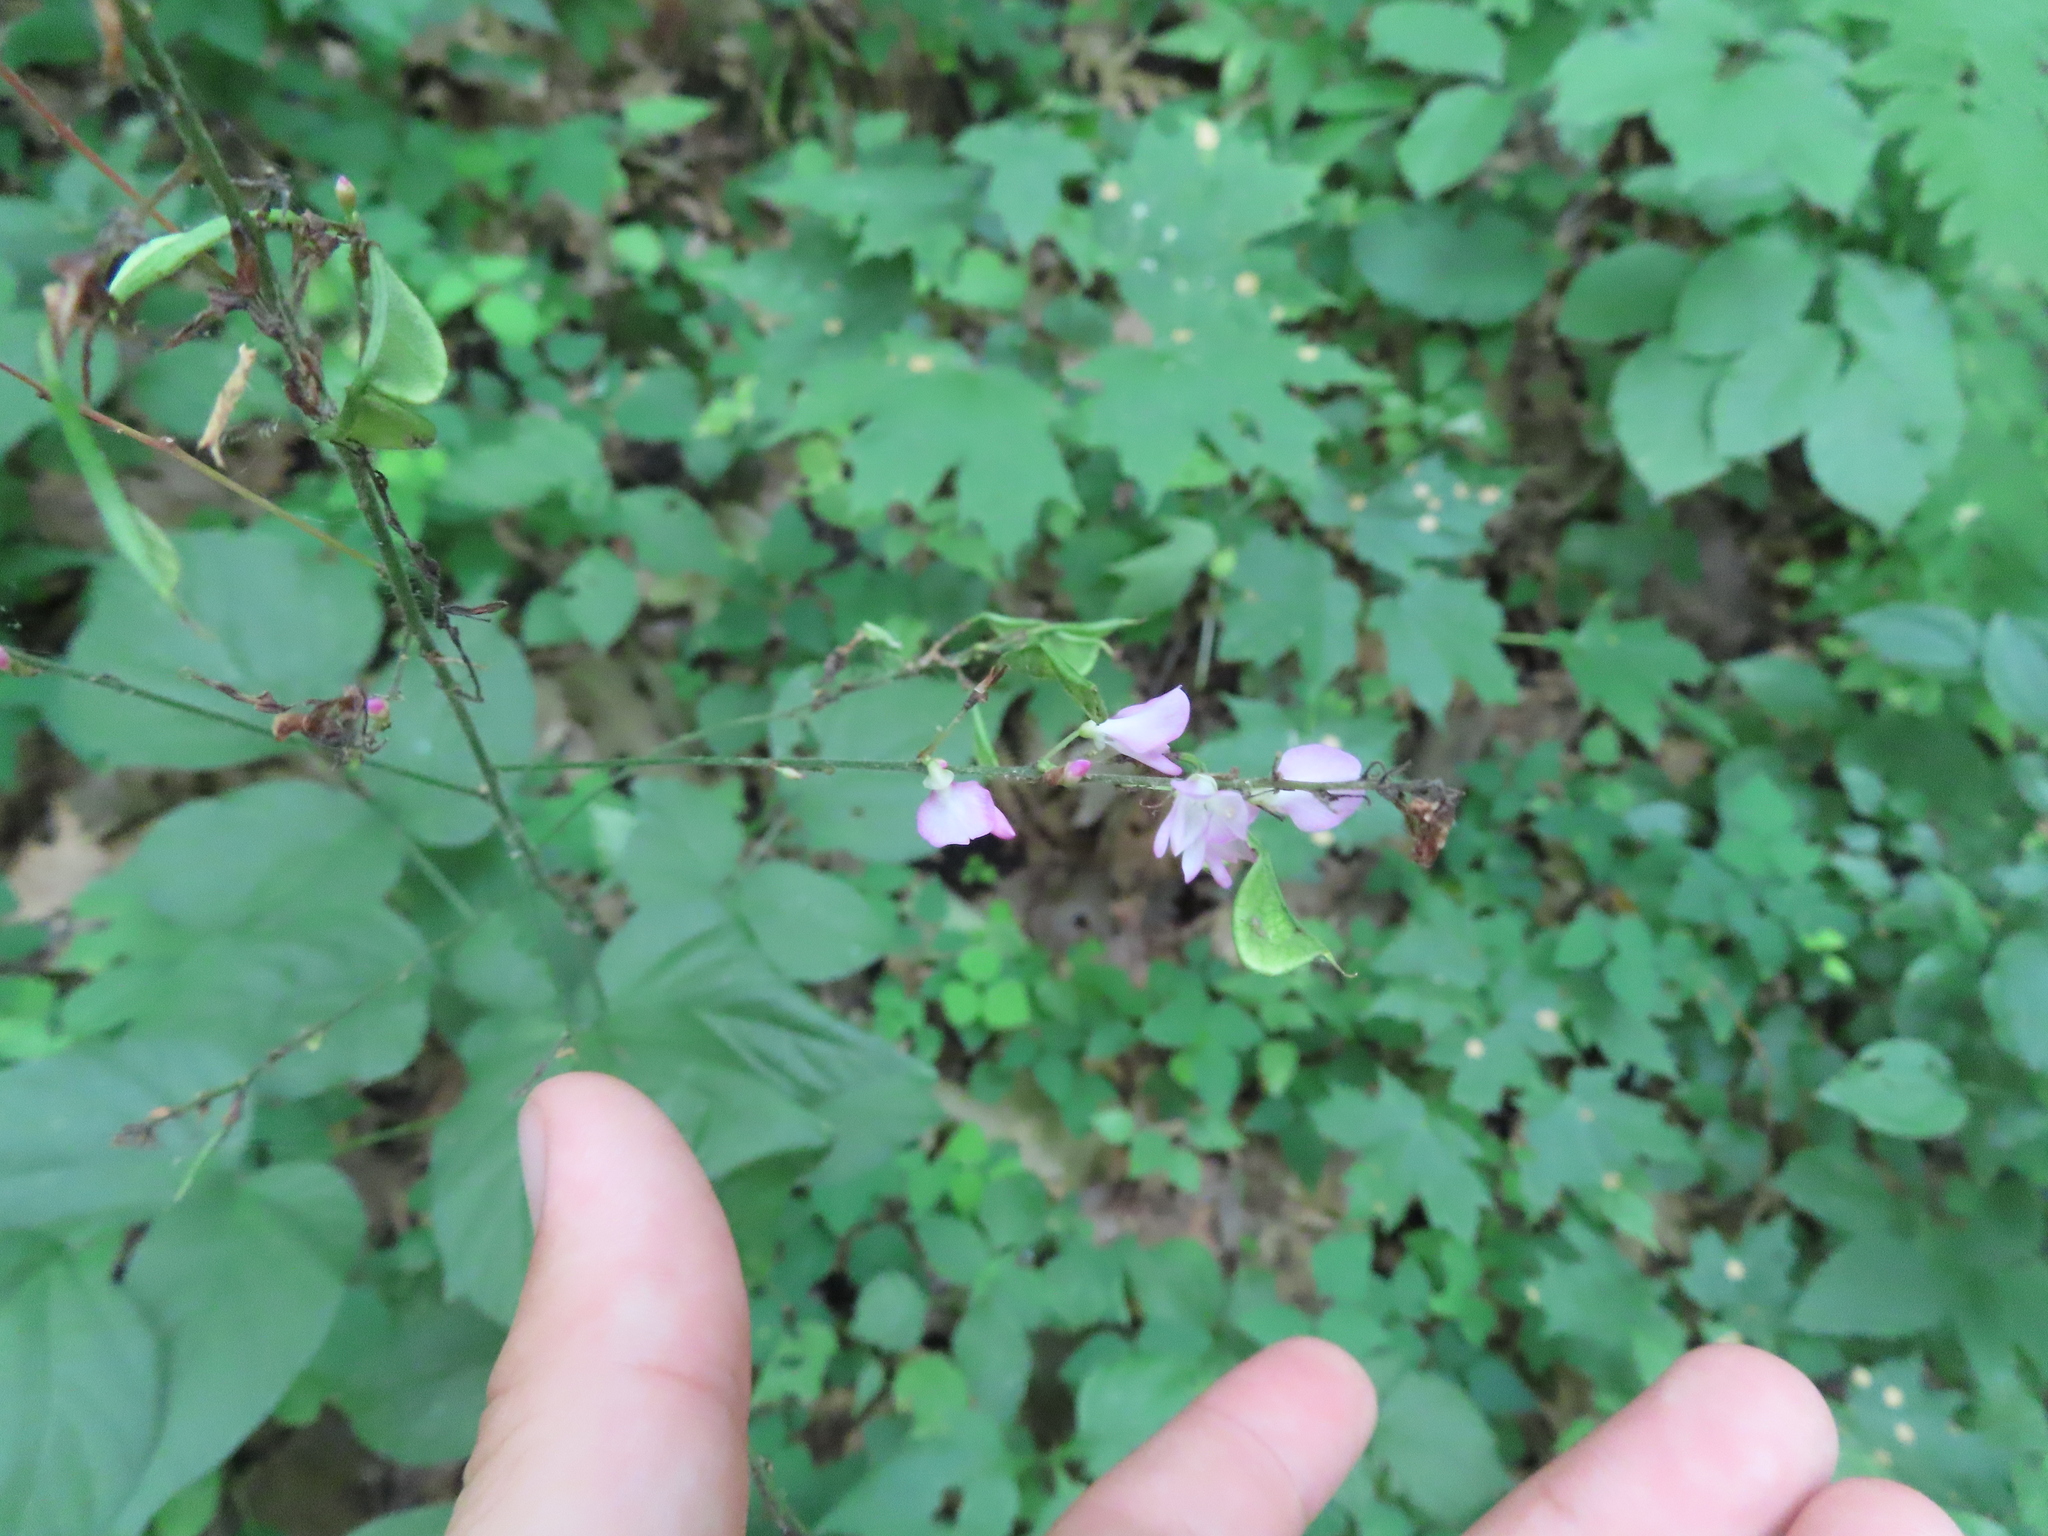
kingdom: Plantae
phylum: Tracheophyta
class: Magnoliopsida
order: Fabales
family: Fabaceae
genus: Hylodesmum
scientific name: Hylodesmum glutinosum
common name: Clustered-leaved tick-trefoil
